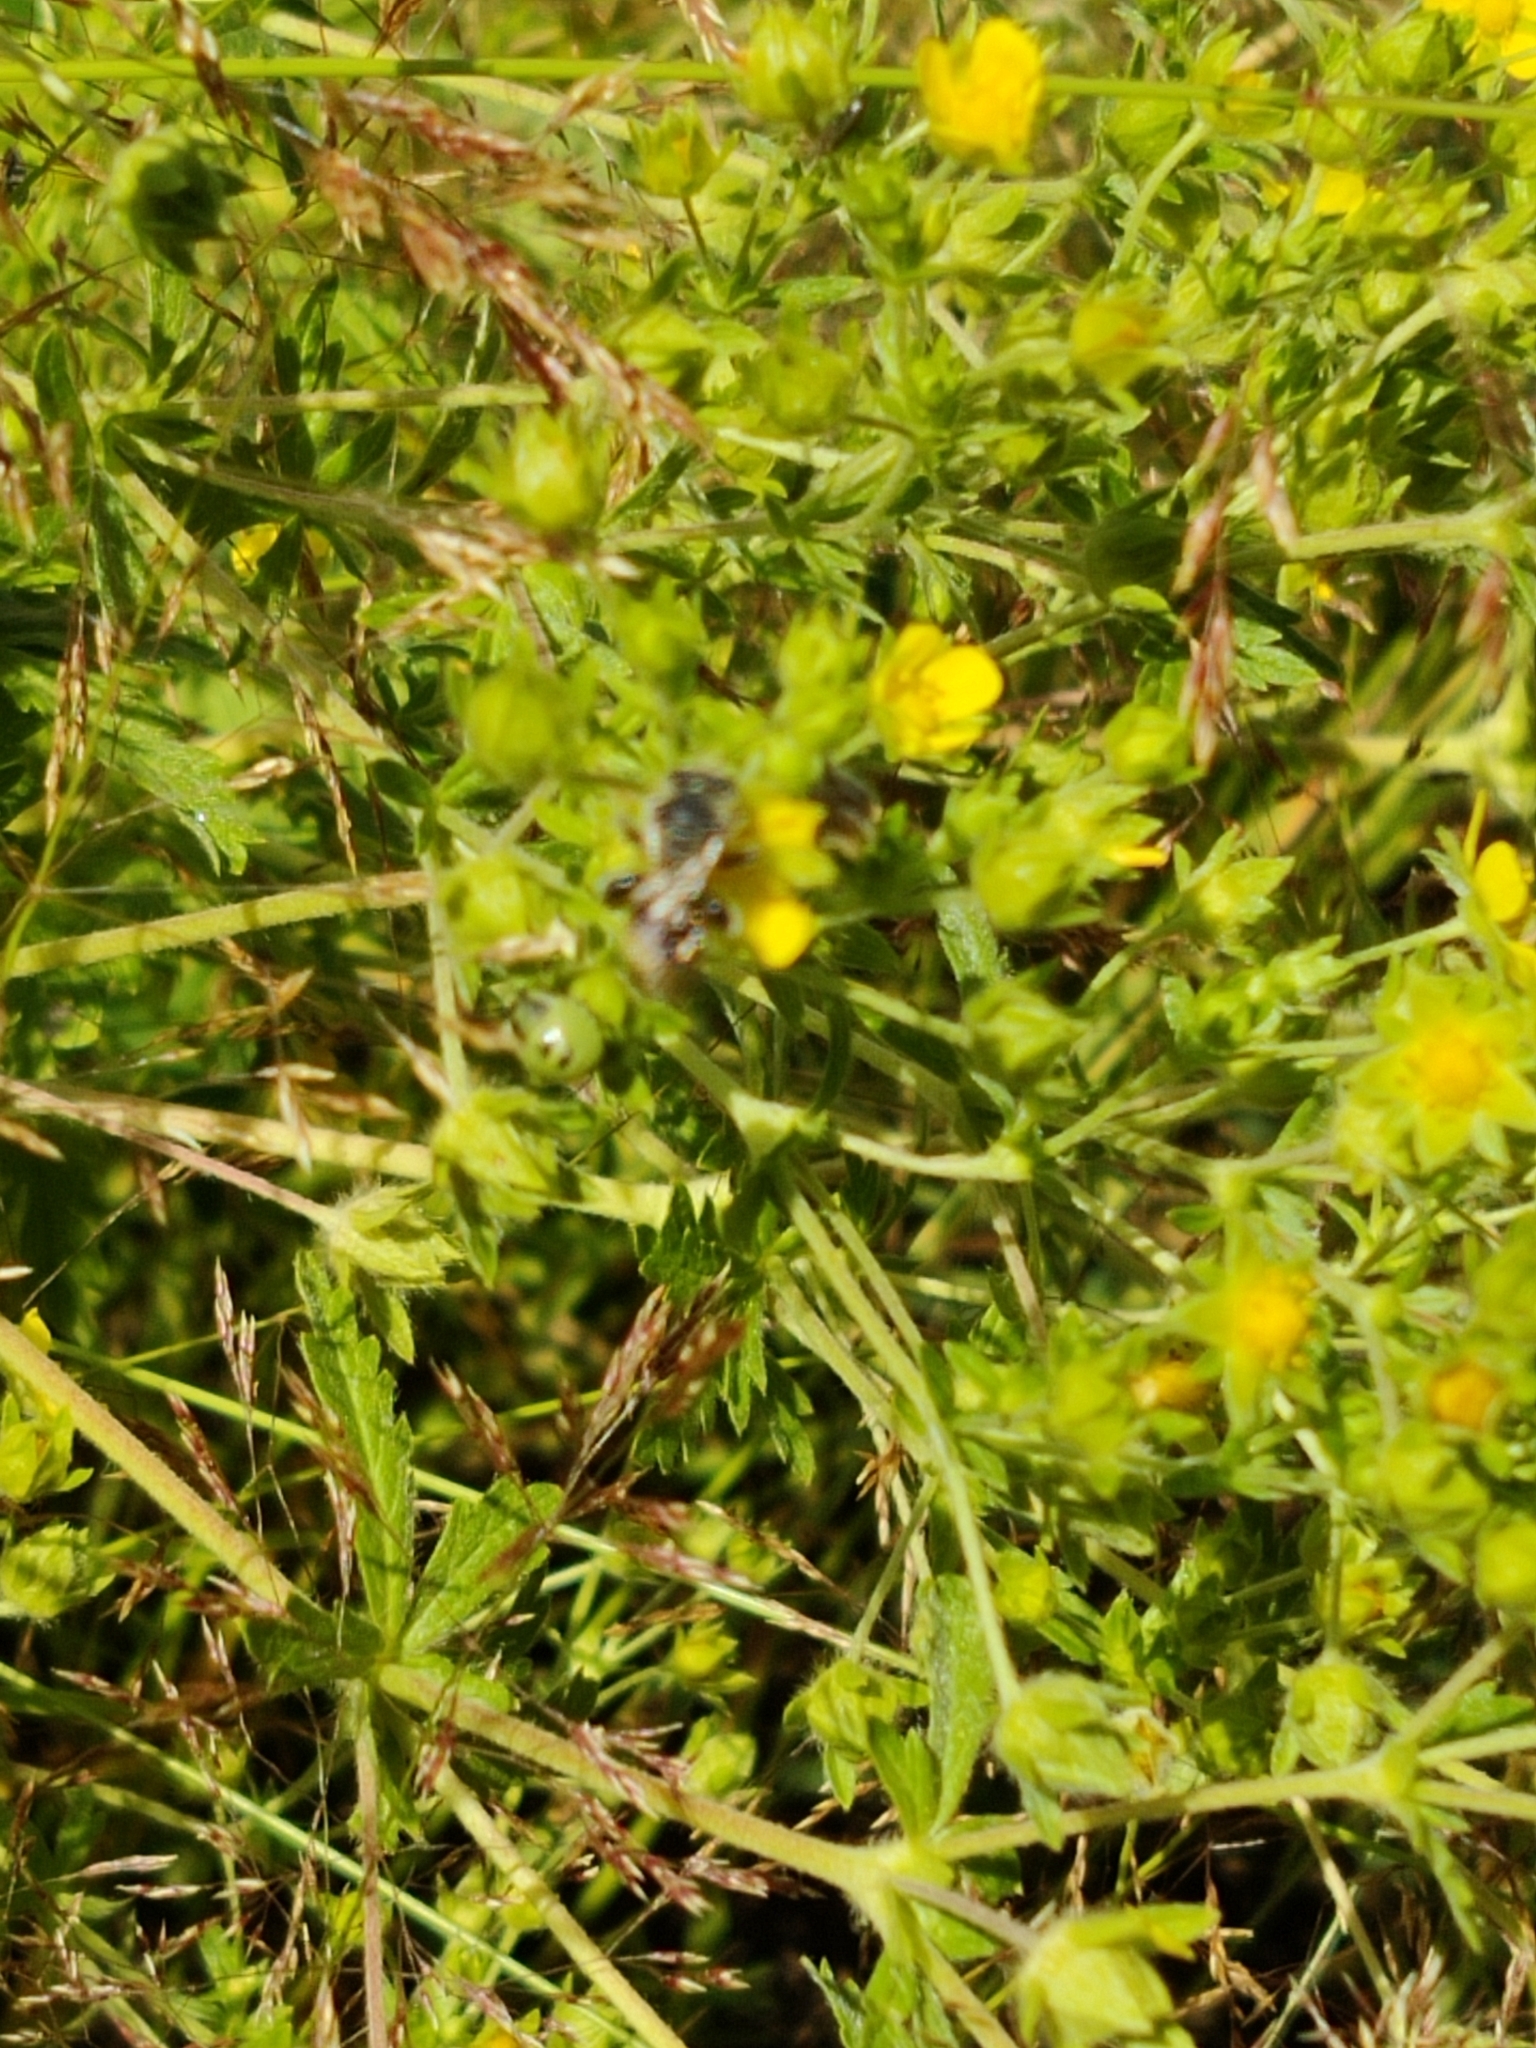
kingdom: Animalia
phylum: Arthropoda
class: Insecta
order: Hymenoptera
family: Apidae
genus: Apis
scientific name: Apis mellifera
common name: Honey bee
